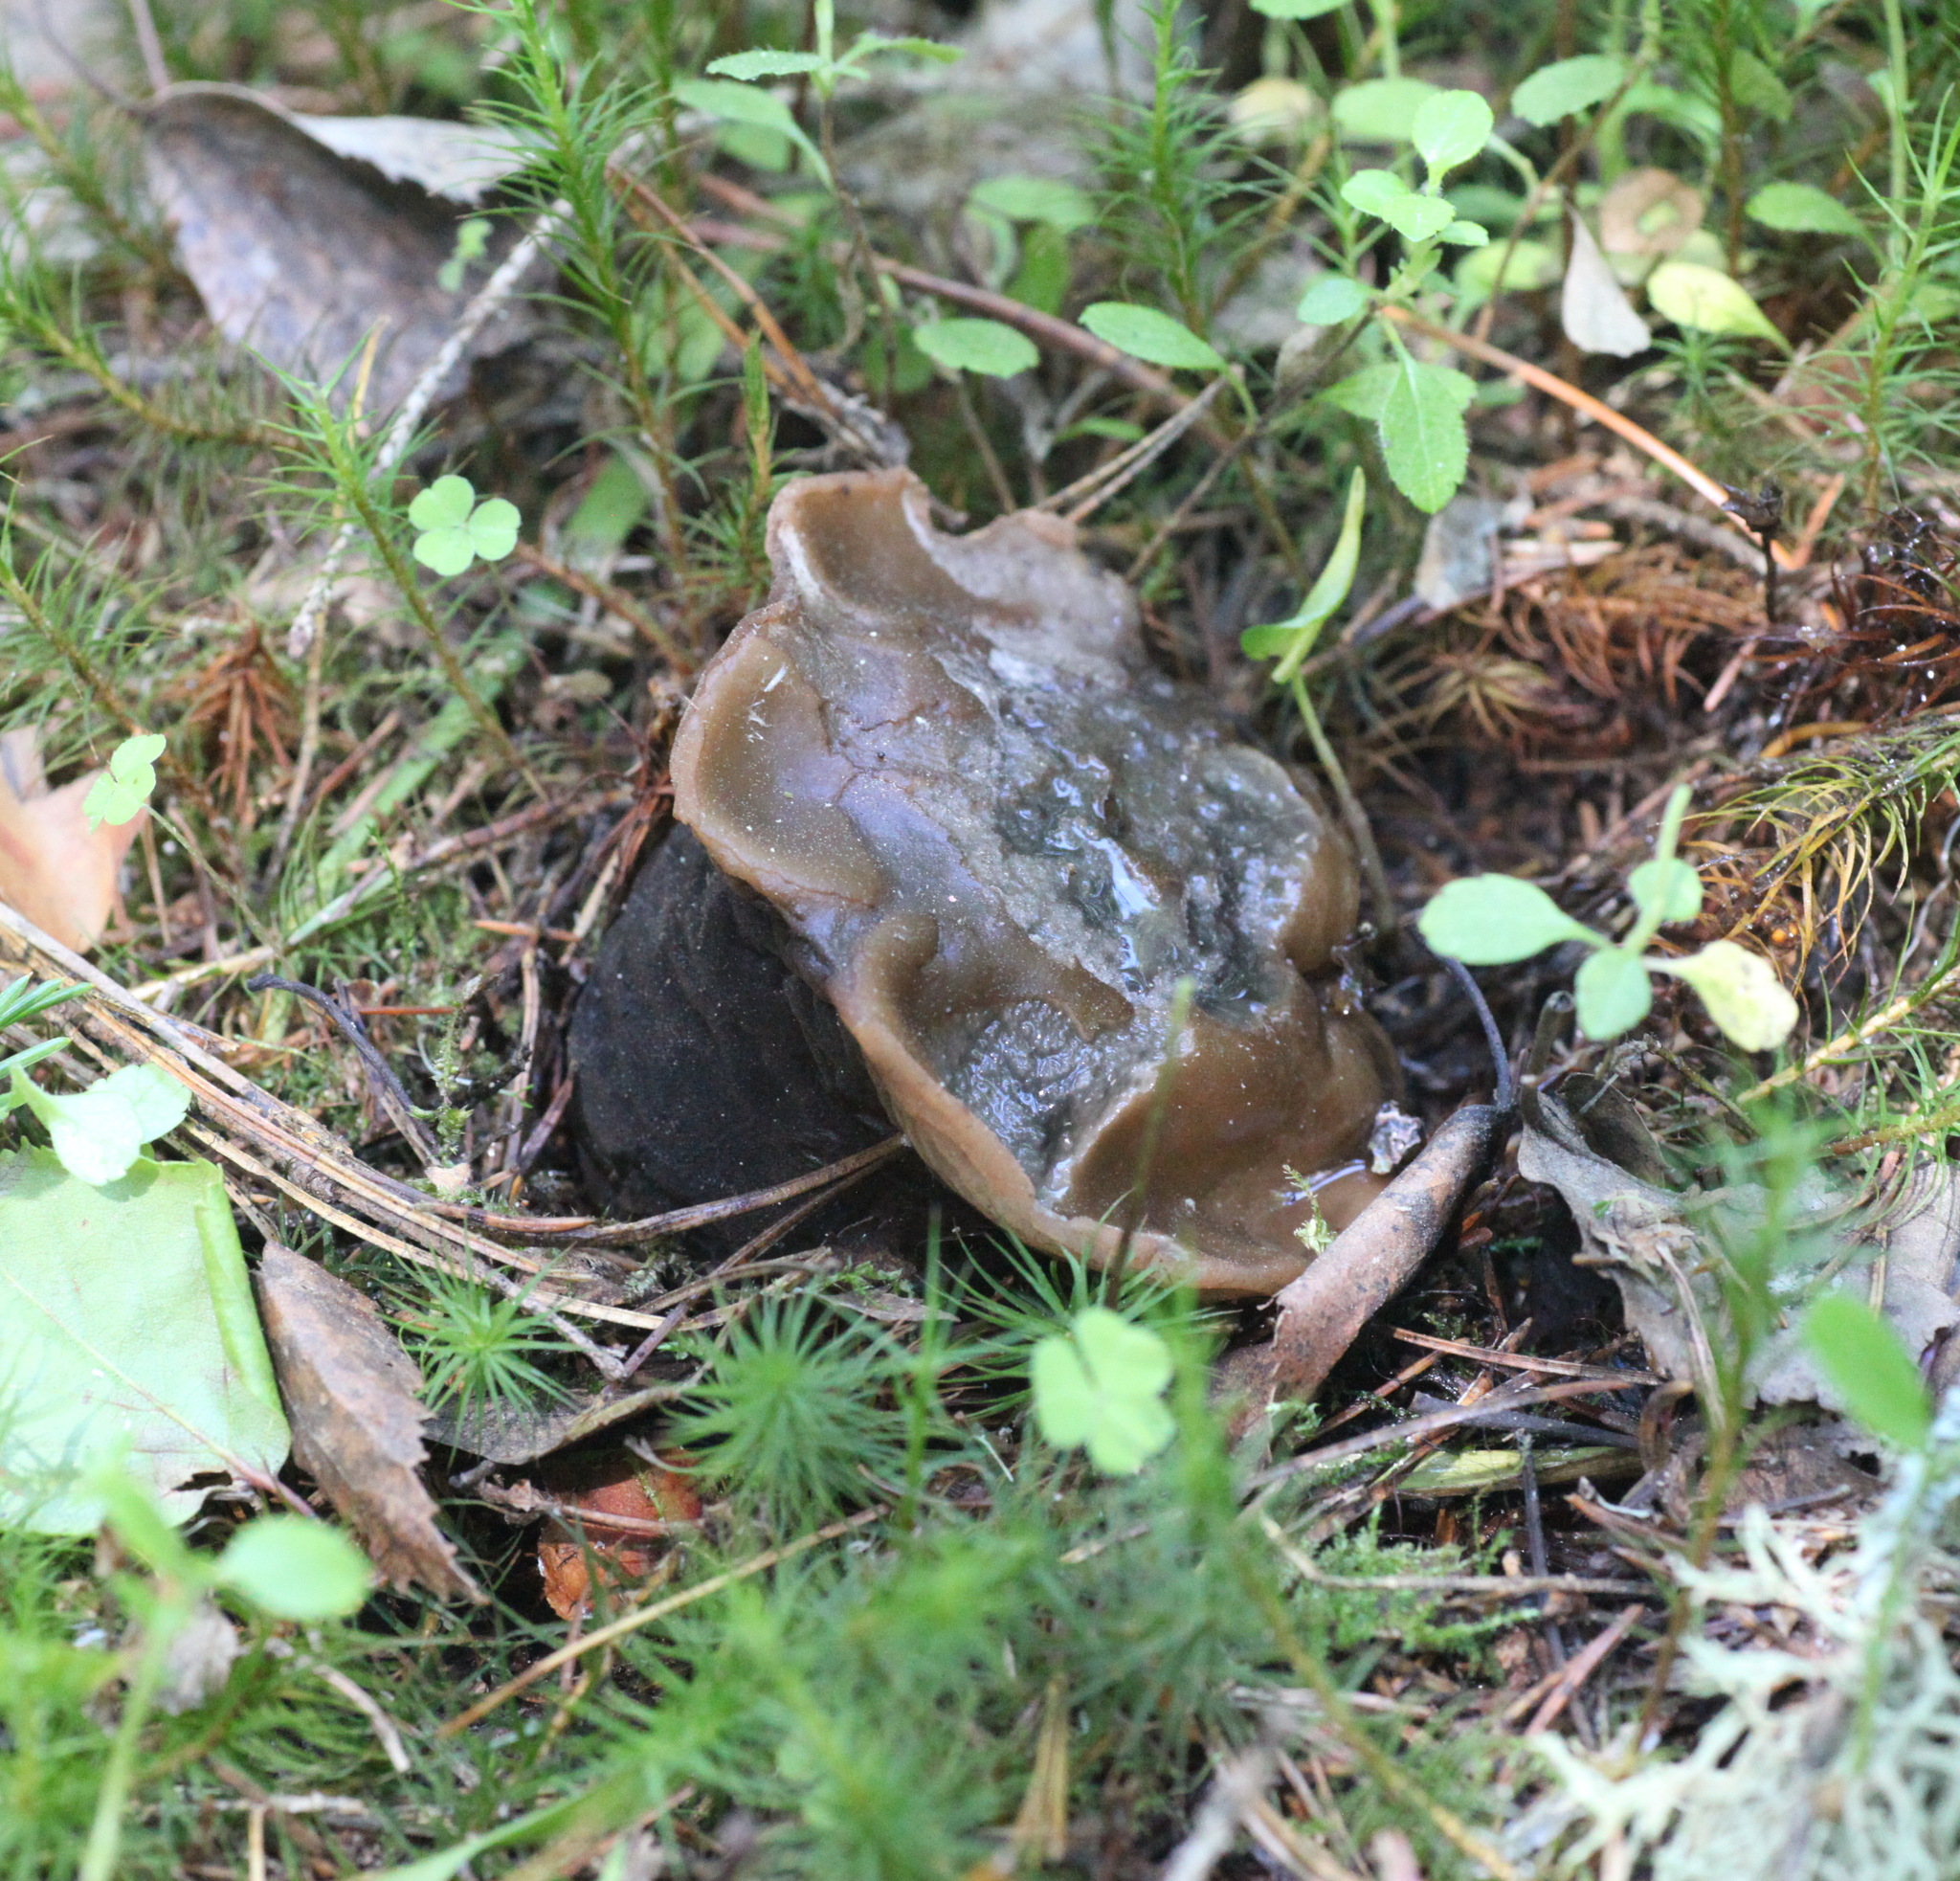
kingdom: Fungi
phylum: Ascomycota
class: Pezizomycetes
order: Pezizales
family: Sarcosomataceae
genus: Sarcosoma
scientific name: Sarcosoma globosum
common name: Charred-pancake cup
